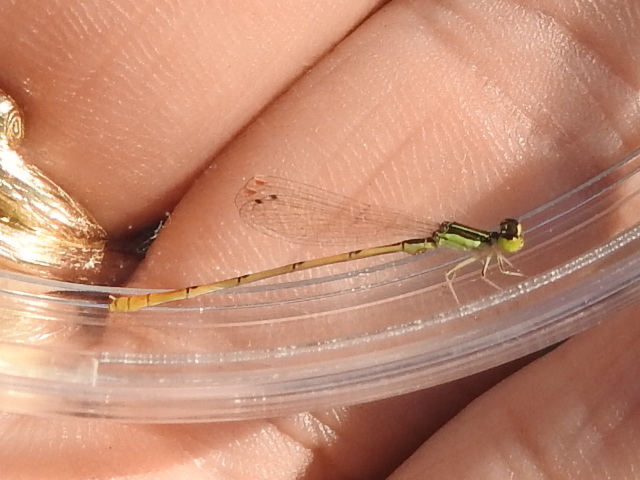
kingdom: Animalia
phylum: Arthropoda
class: Insecta
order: Odonata
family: Coenagrionidae
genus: Ischnura
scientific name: Ischnura hastata
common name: Citrine forktail
